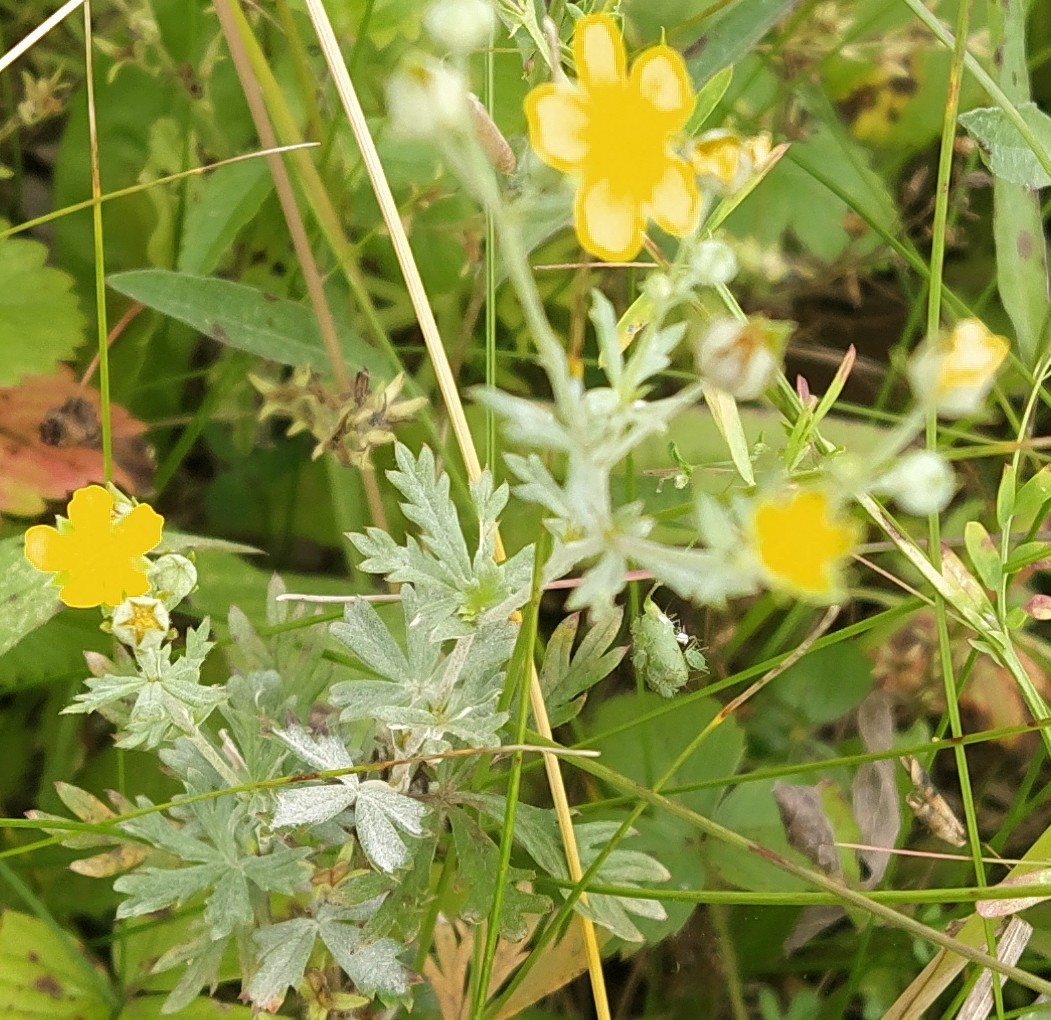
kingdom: Plantae
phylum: Tracheophyta
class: Magnoliopsida
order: Rosales
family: Rosaceae
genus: Potentilla
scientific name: Potentilla argentea
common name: Hoary cinquefoil
